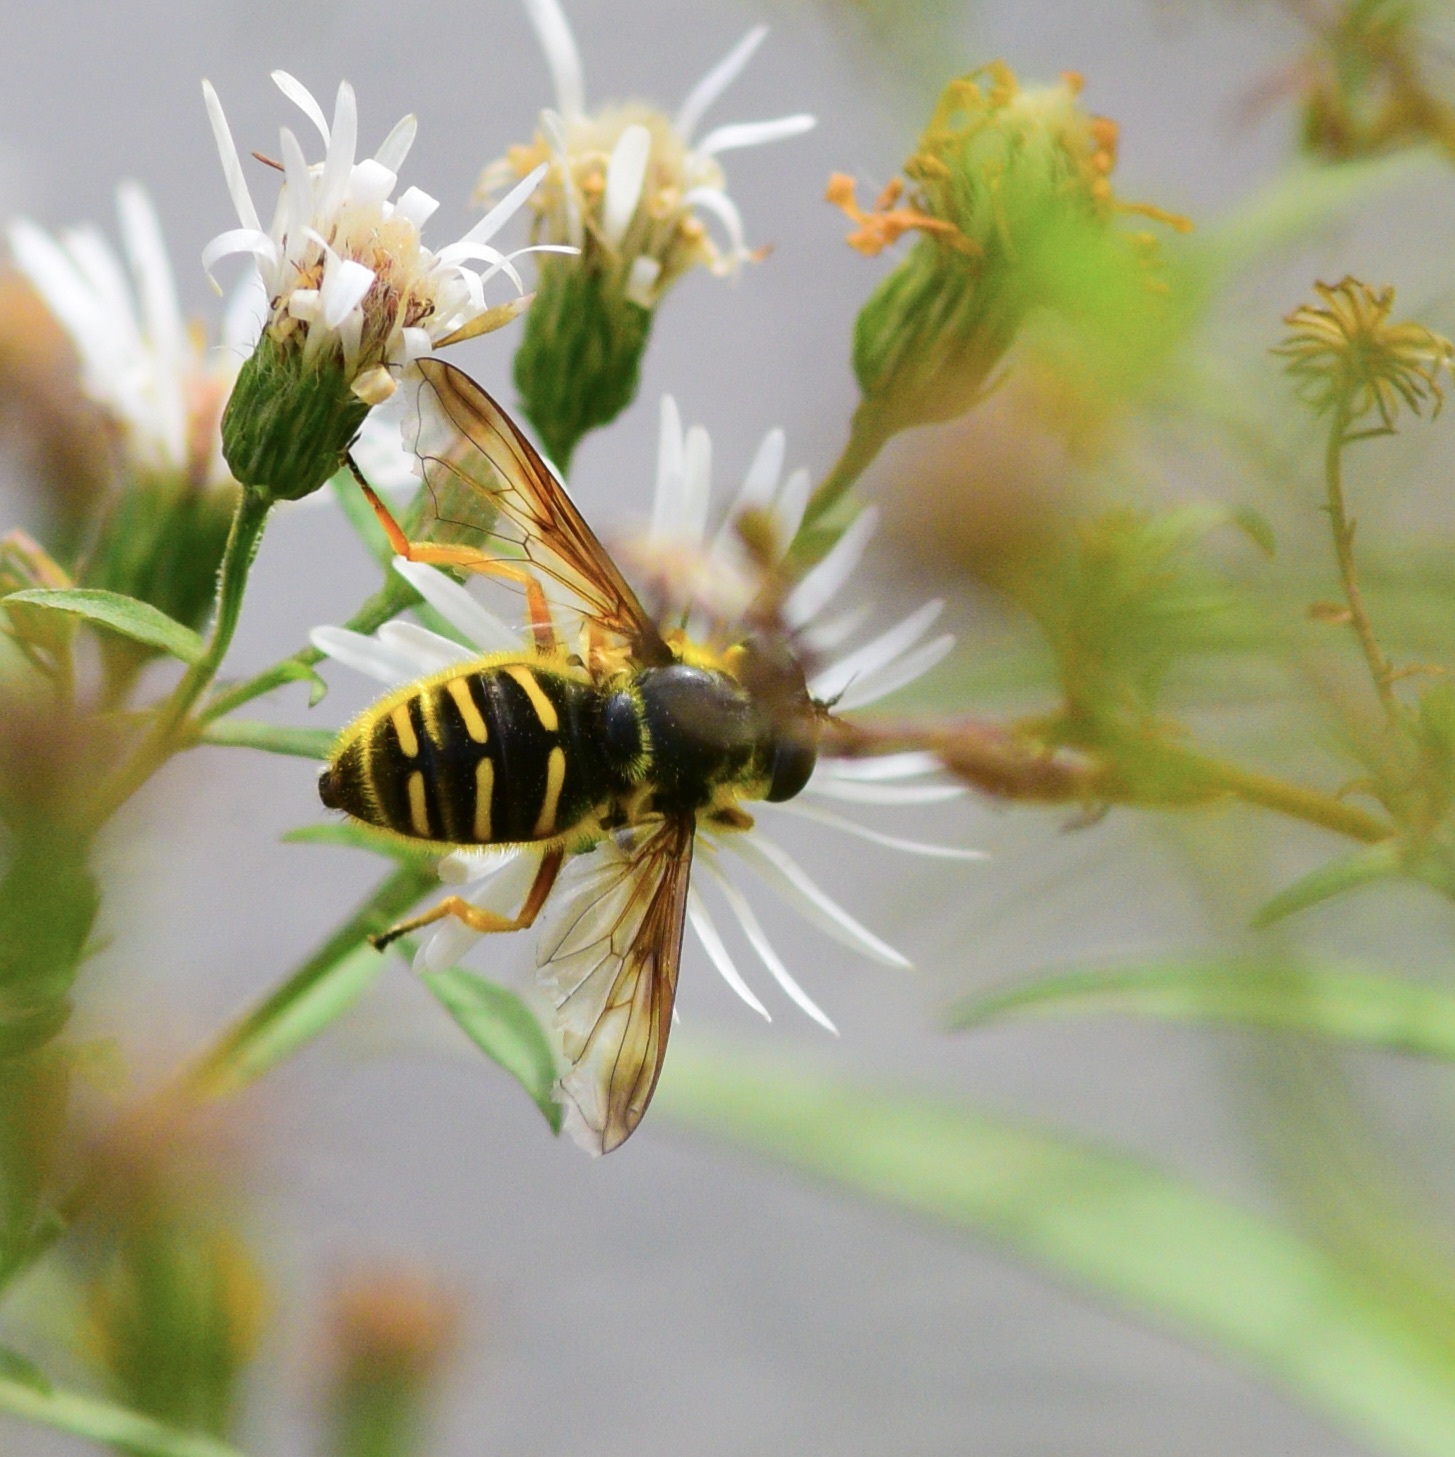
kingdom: Animalia
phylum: Arthropoda
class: Insecta
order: Diptera
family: Syrphidae
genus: Sericomyia
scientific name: Sericomyia chrysotoxoides
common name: Oblique-banded pond fly
